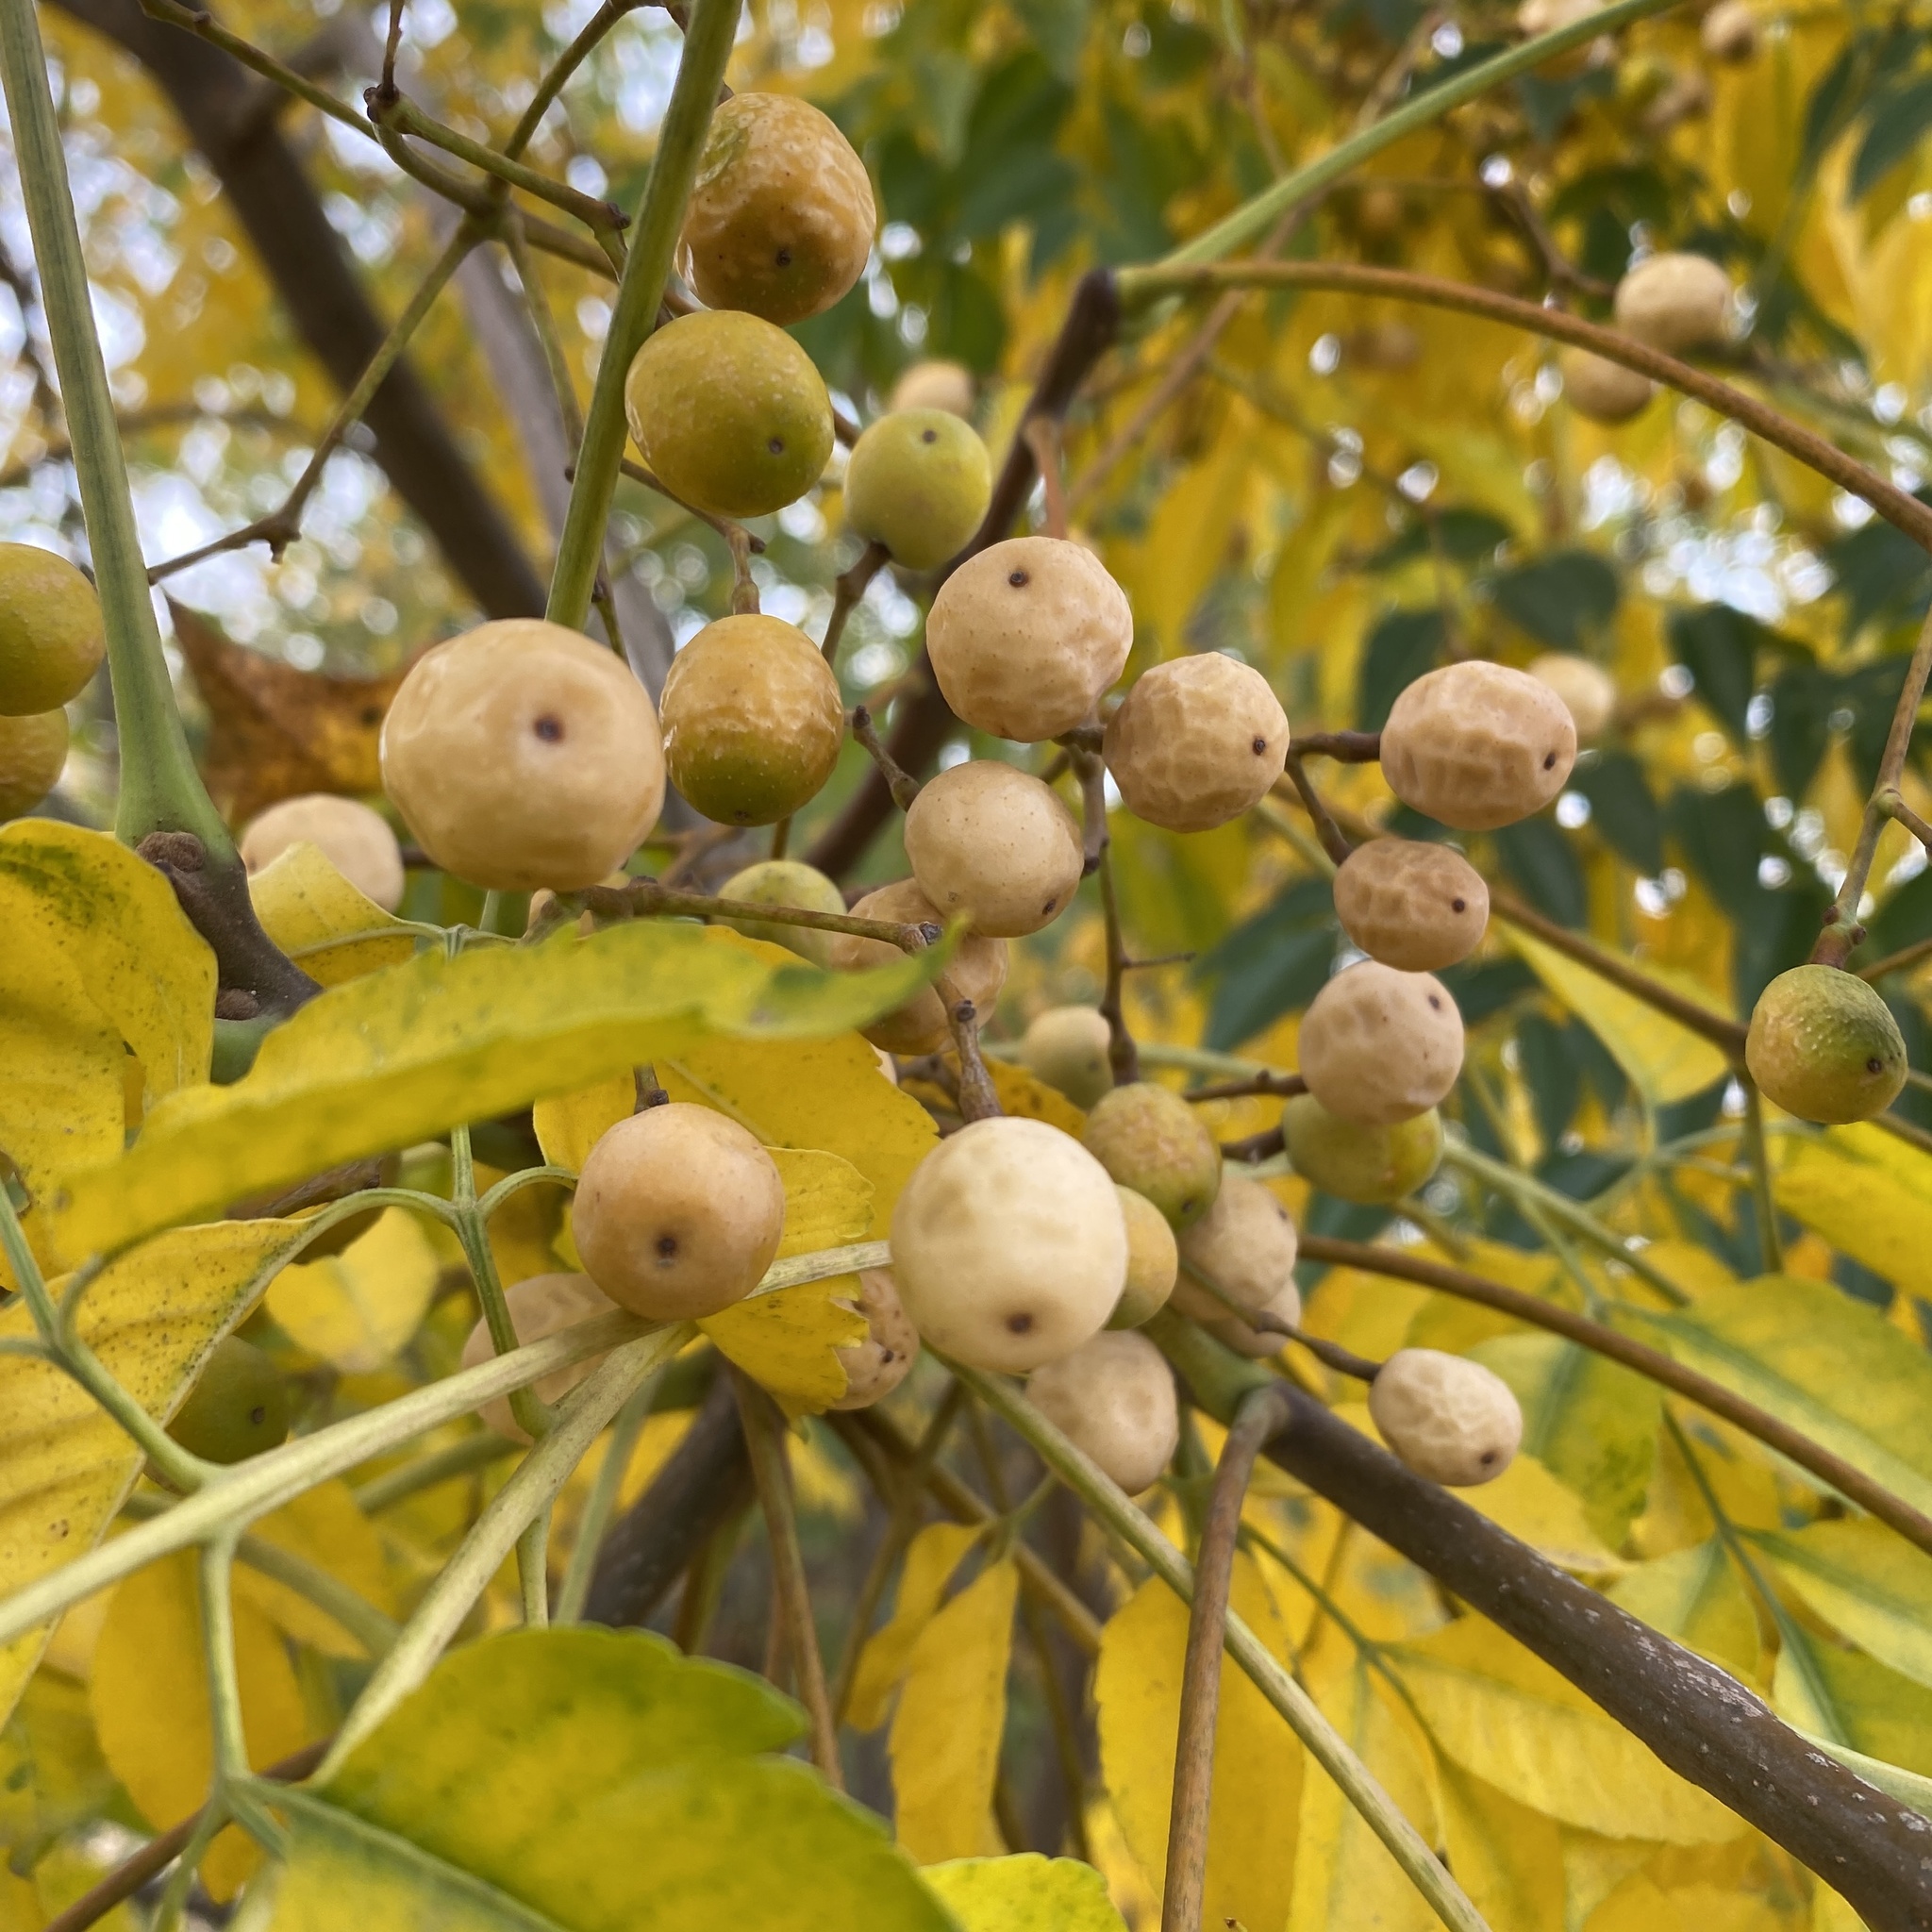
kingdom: Plantae
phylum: Tracheophyta
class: Magnoliopsida
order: Sapindales
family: Meliaceae
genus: Melia
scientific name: Melia azedarach
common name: Chinaberrytree
